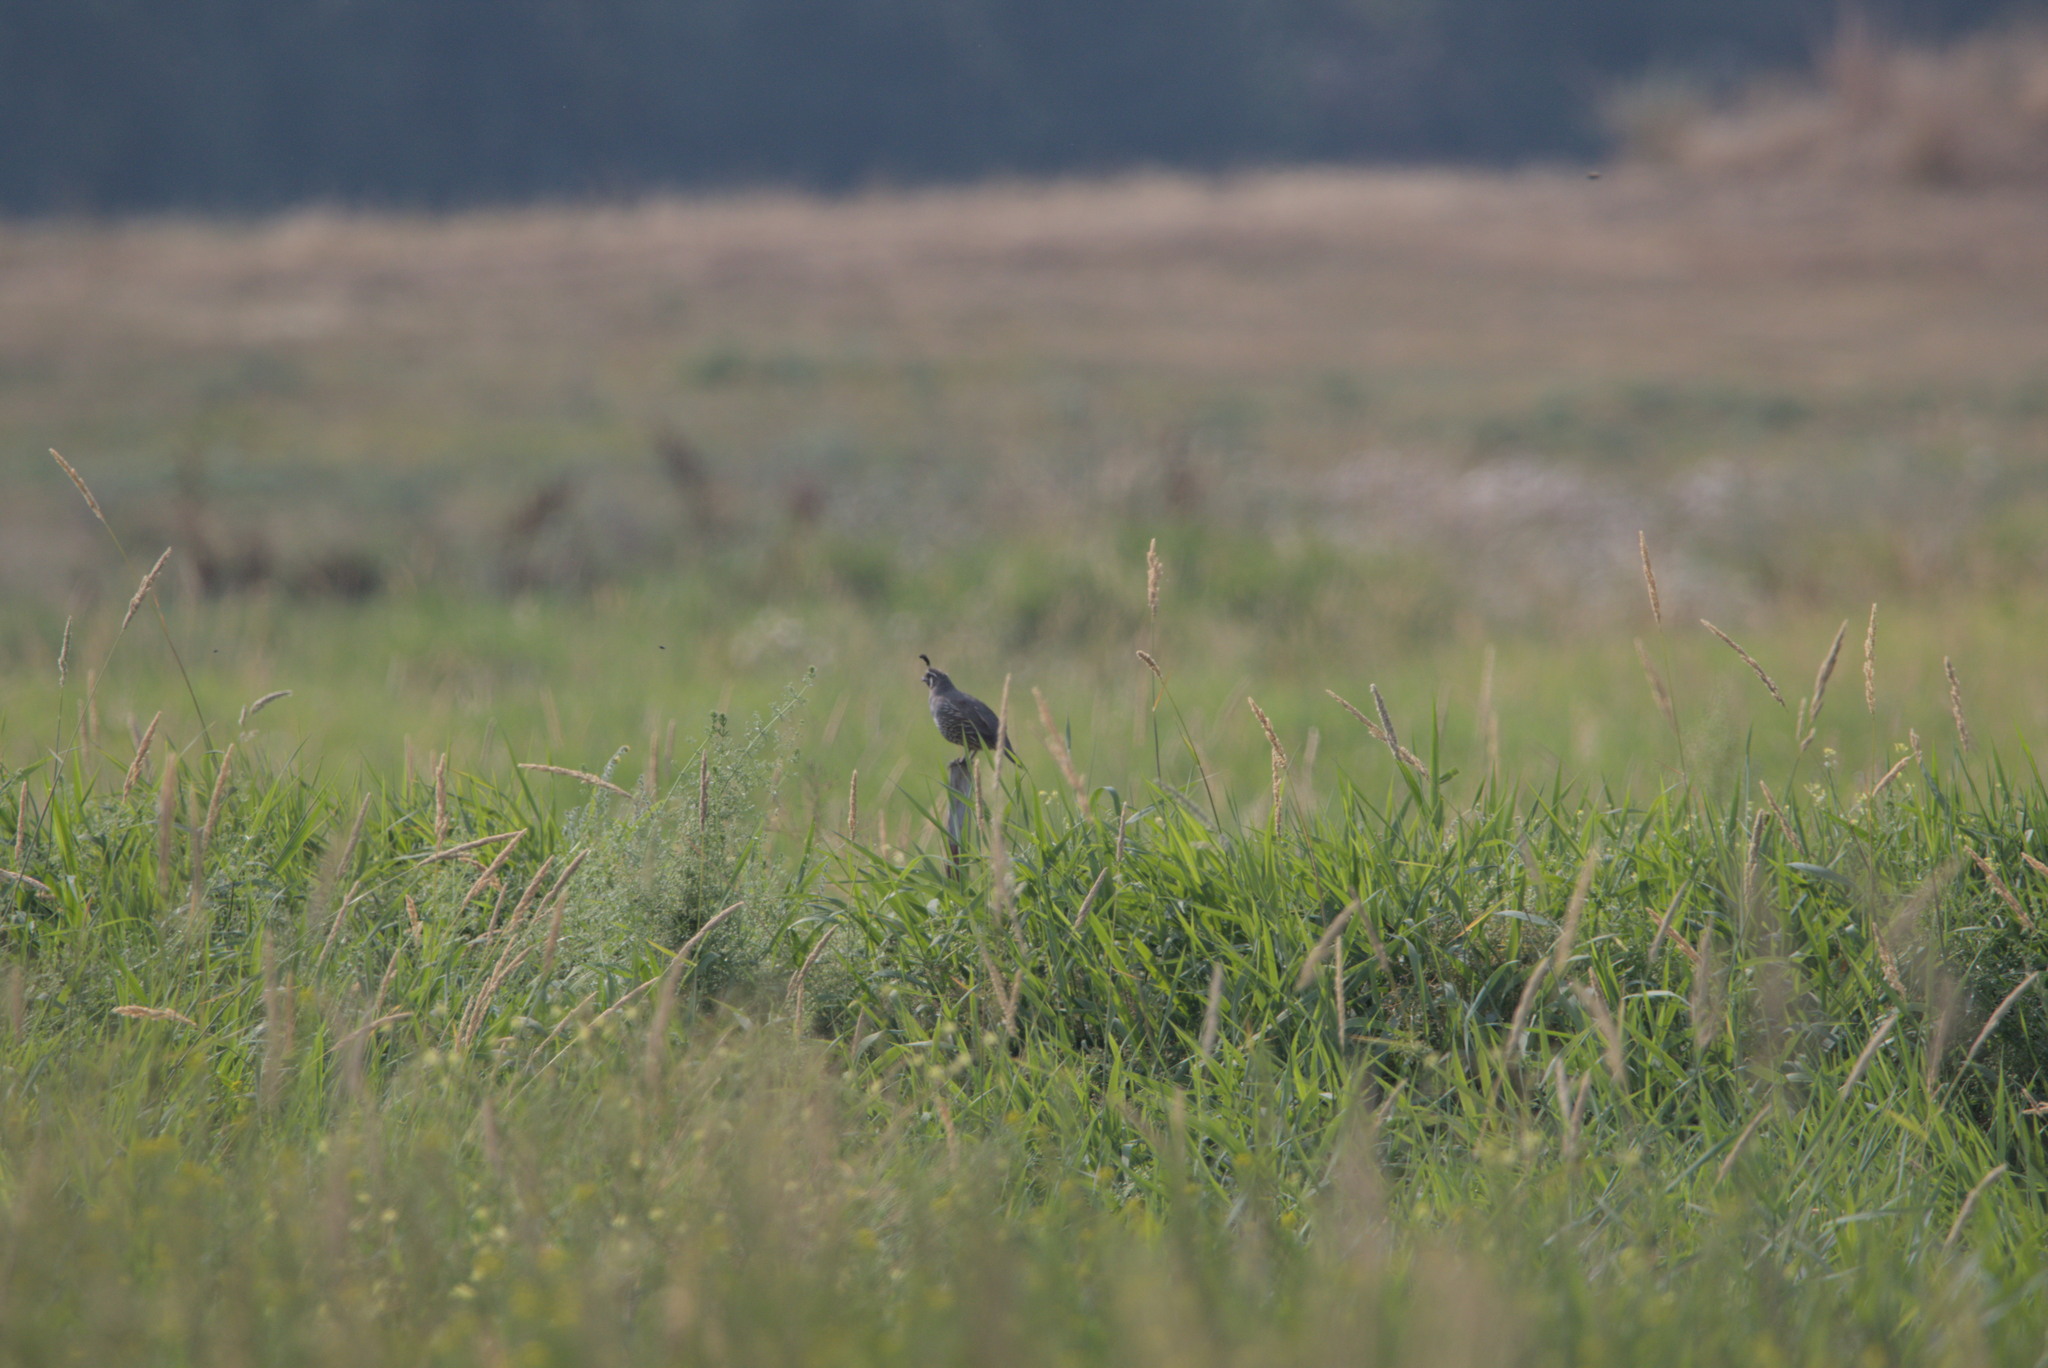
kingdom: Animalia
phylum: Chordata
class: Aves
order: Galliformes
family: Odontophoridae
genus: Callipepla
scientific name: Callipepla californica
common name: California quail
